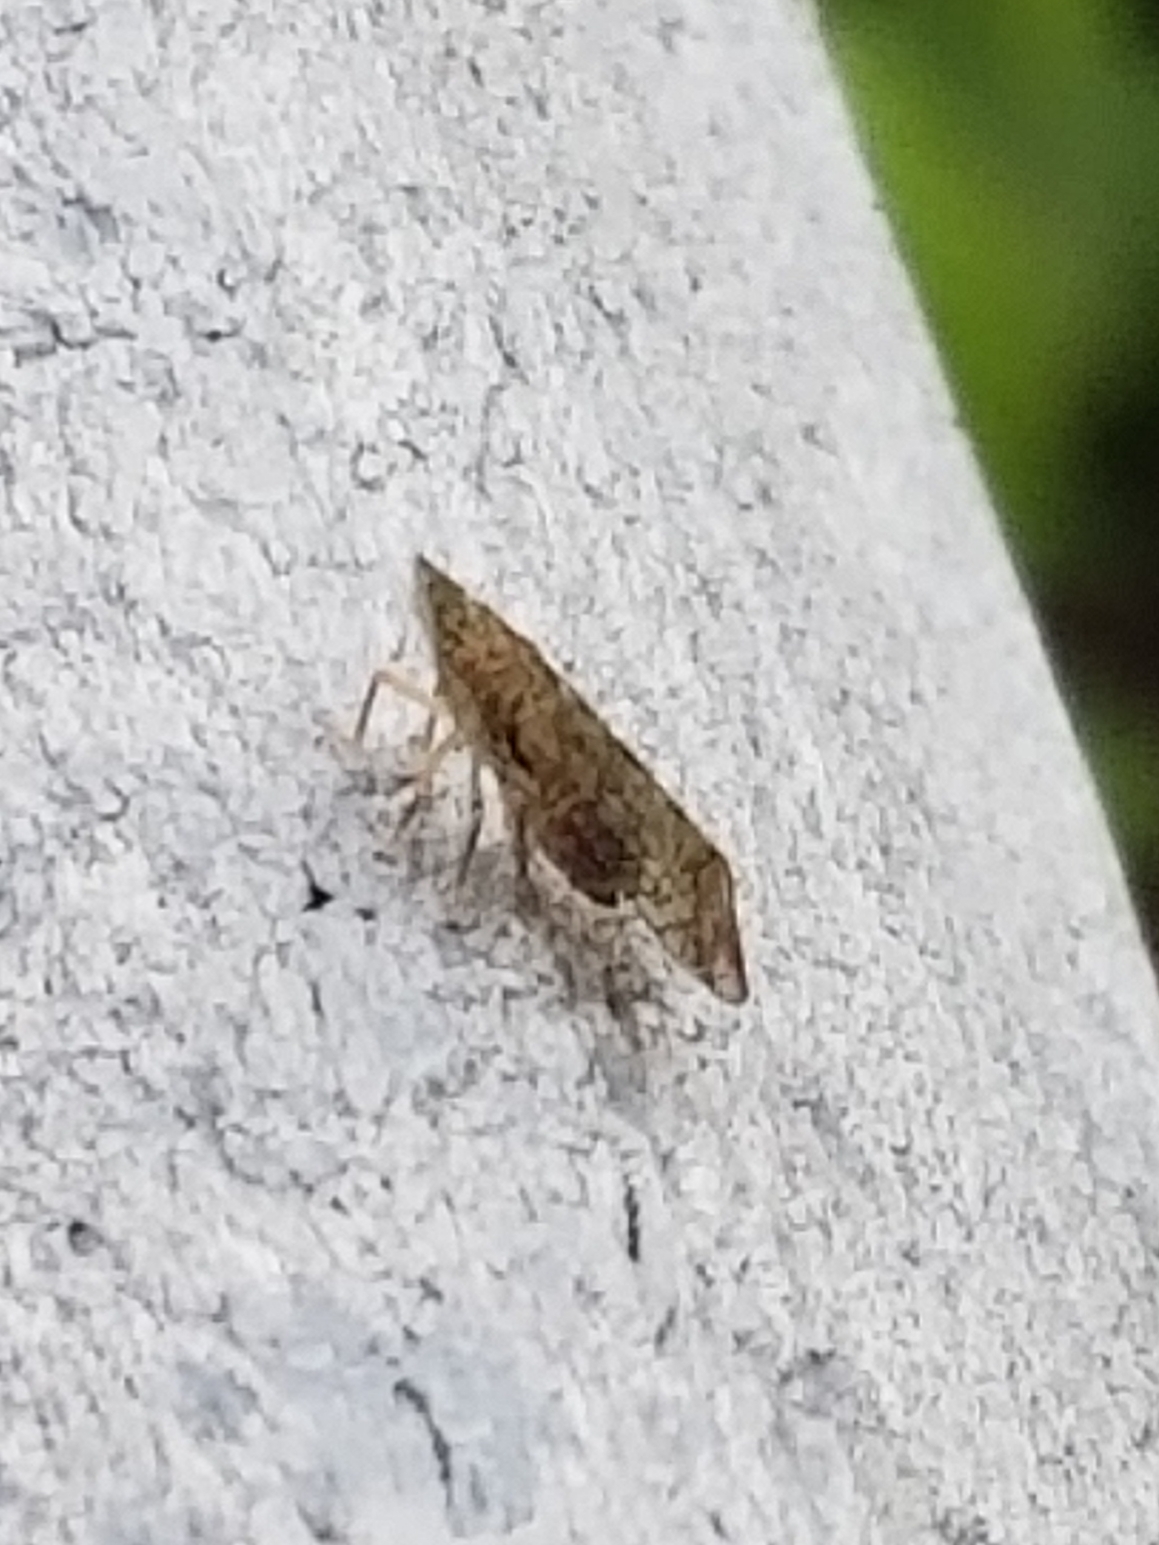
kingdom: Animalia
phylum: Arthropoda
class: Insecta
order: Hemiptera
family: Tropiduchidae
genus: Pelitropis
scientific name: Pelitropis rotulata
